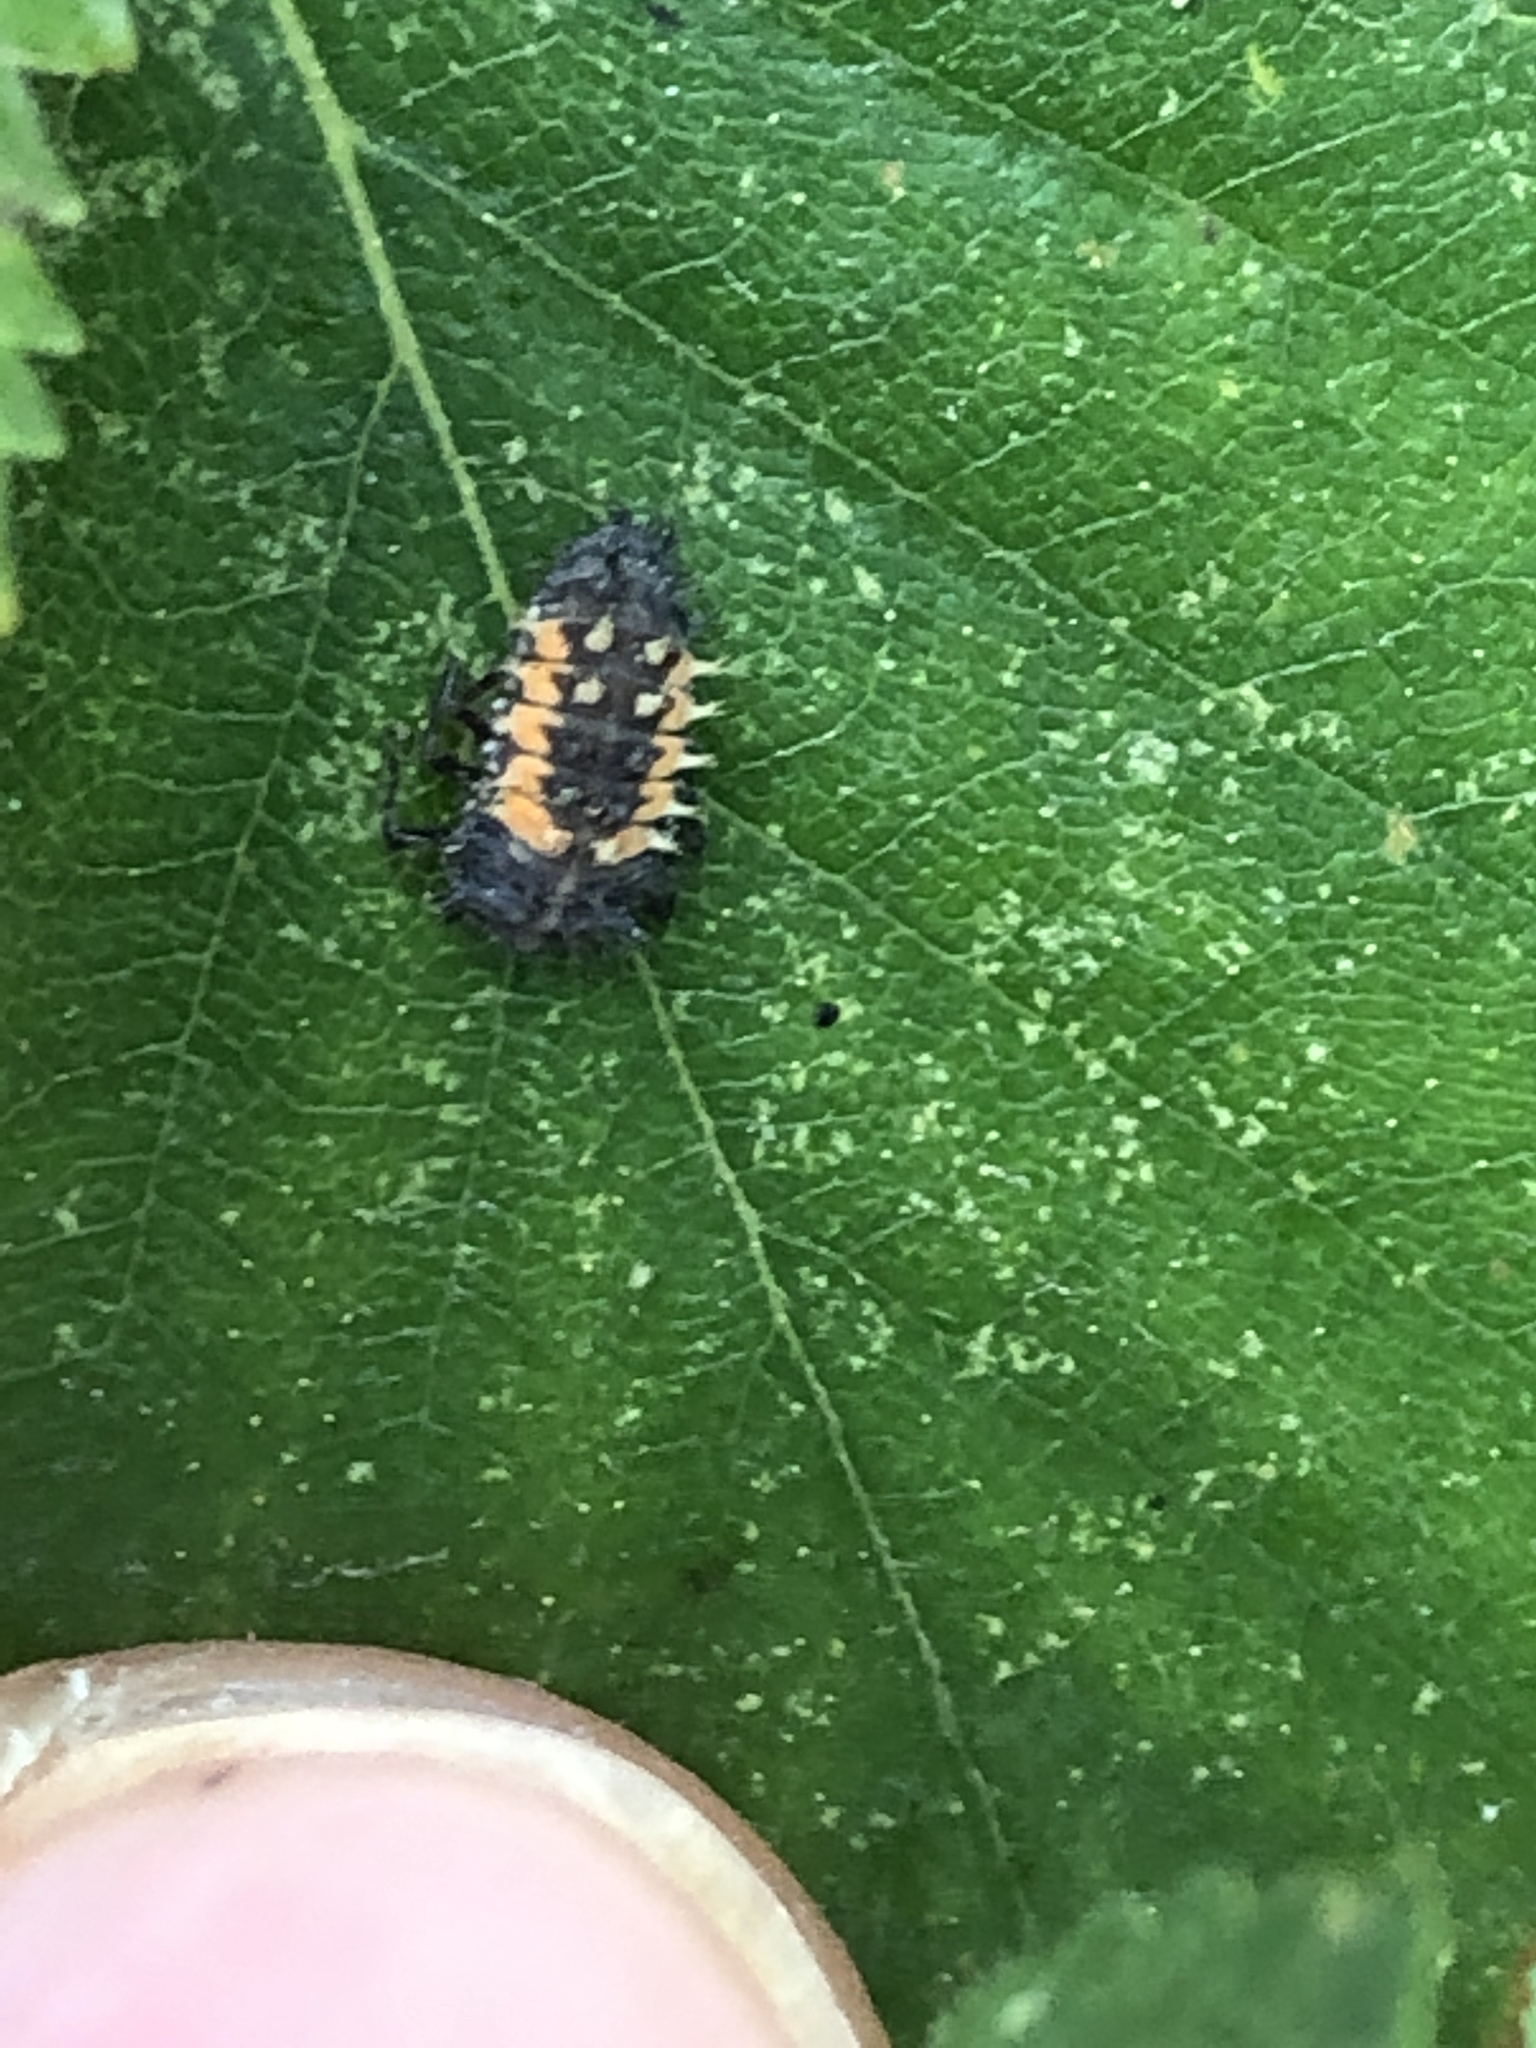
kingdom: Animalia
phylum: Arthropoda
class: Insecta
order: Coleoptera
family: Coccinellidae
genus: Harmonia
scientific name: Harmonia axyridis
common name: Harlequin ladybird
